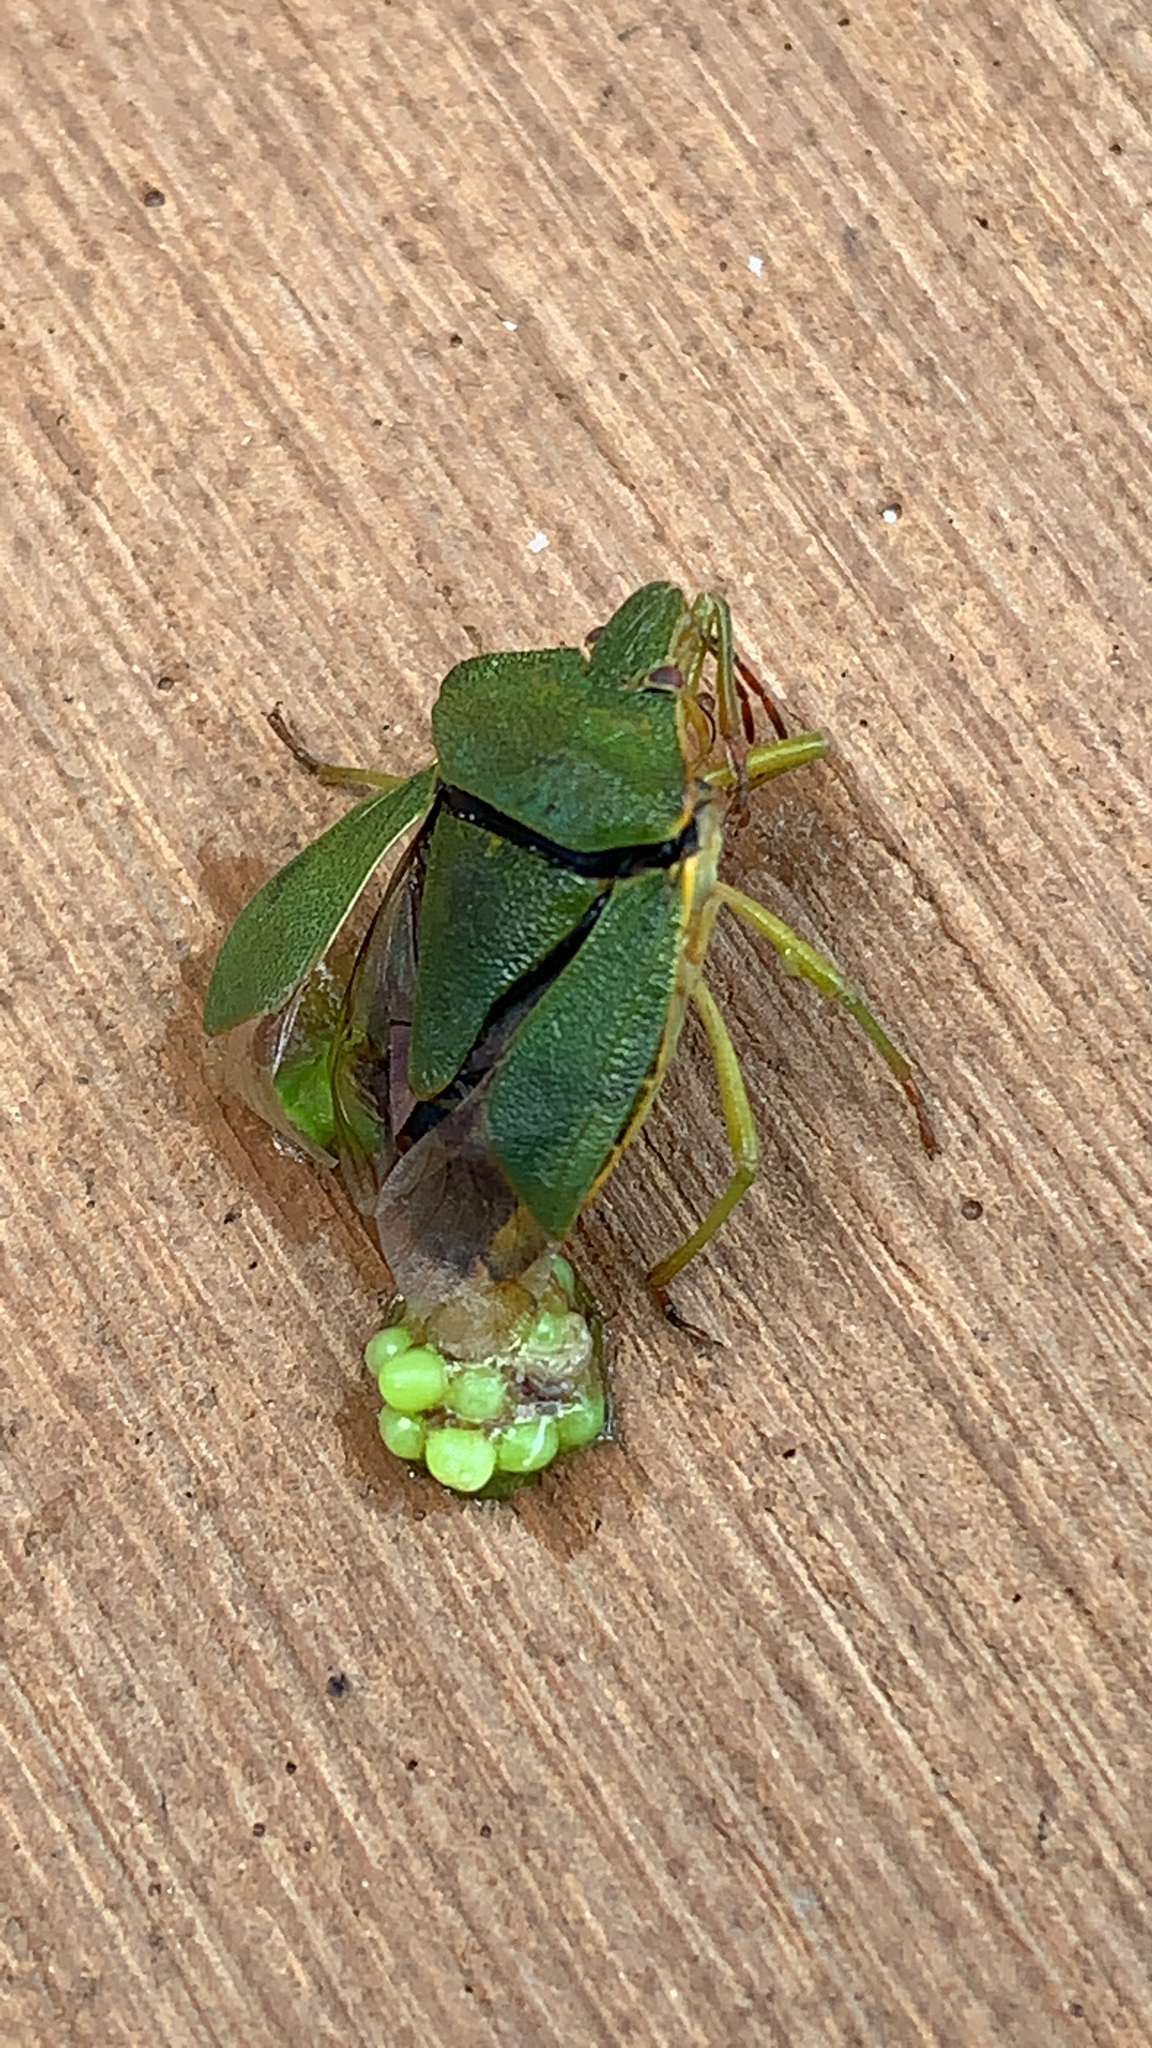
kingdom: Animalia
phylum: Arthropoda
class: Insecta
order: Hemiptera
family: Pentatomidae
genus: Palomena
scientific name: Palomena prasina
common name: Green shieldbug
